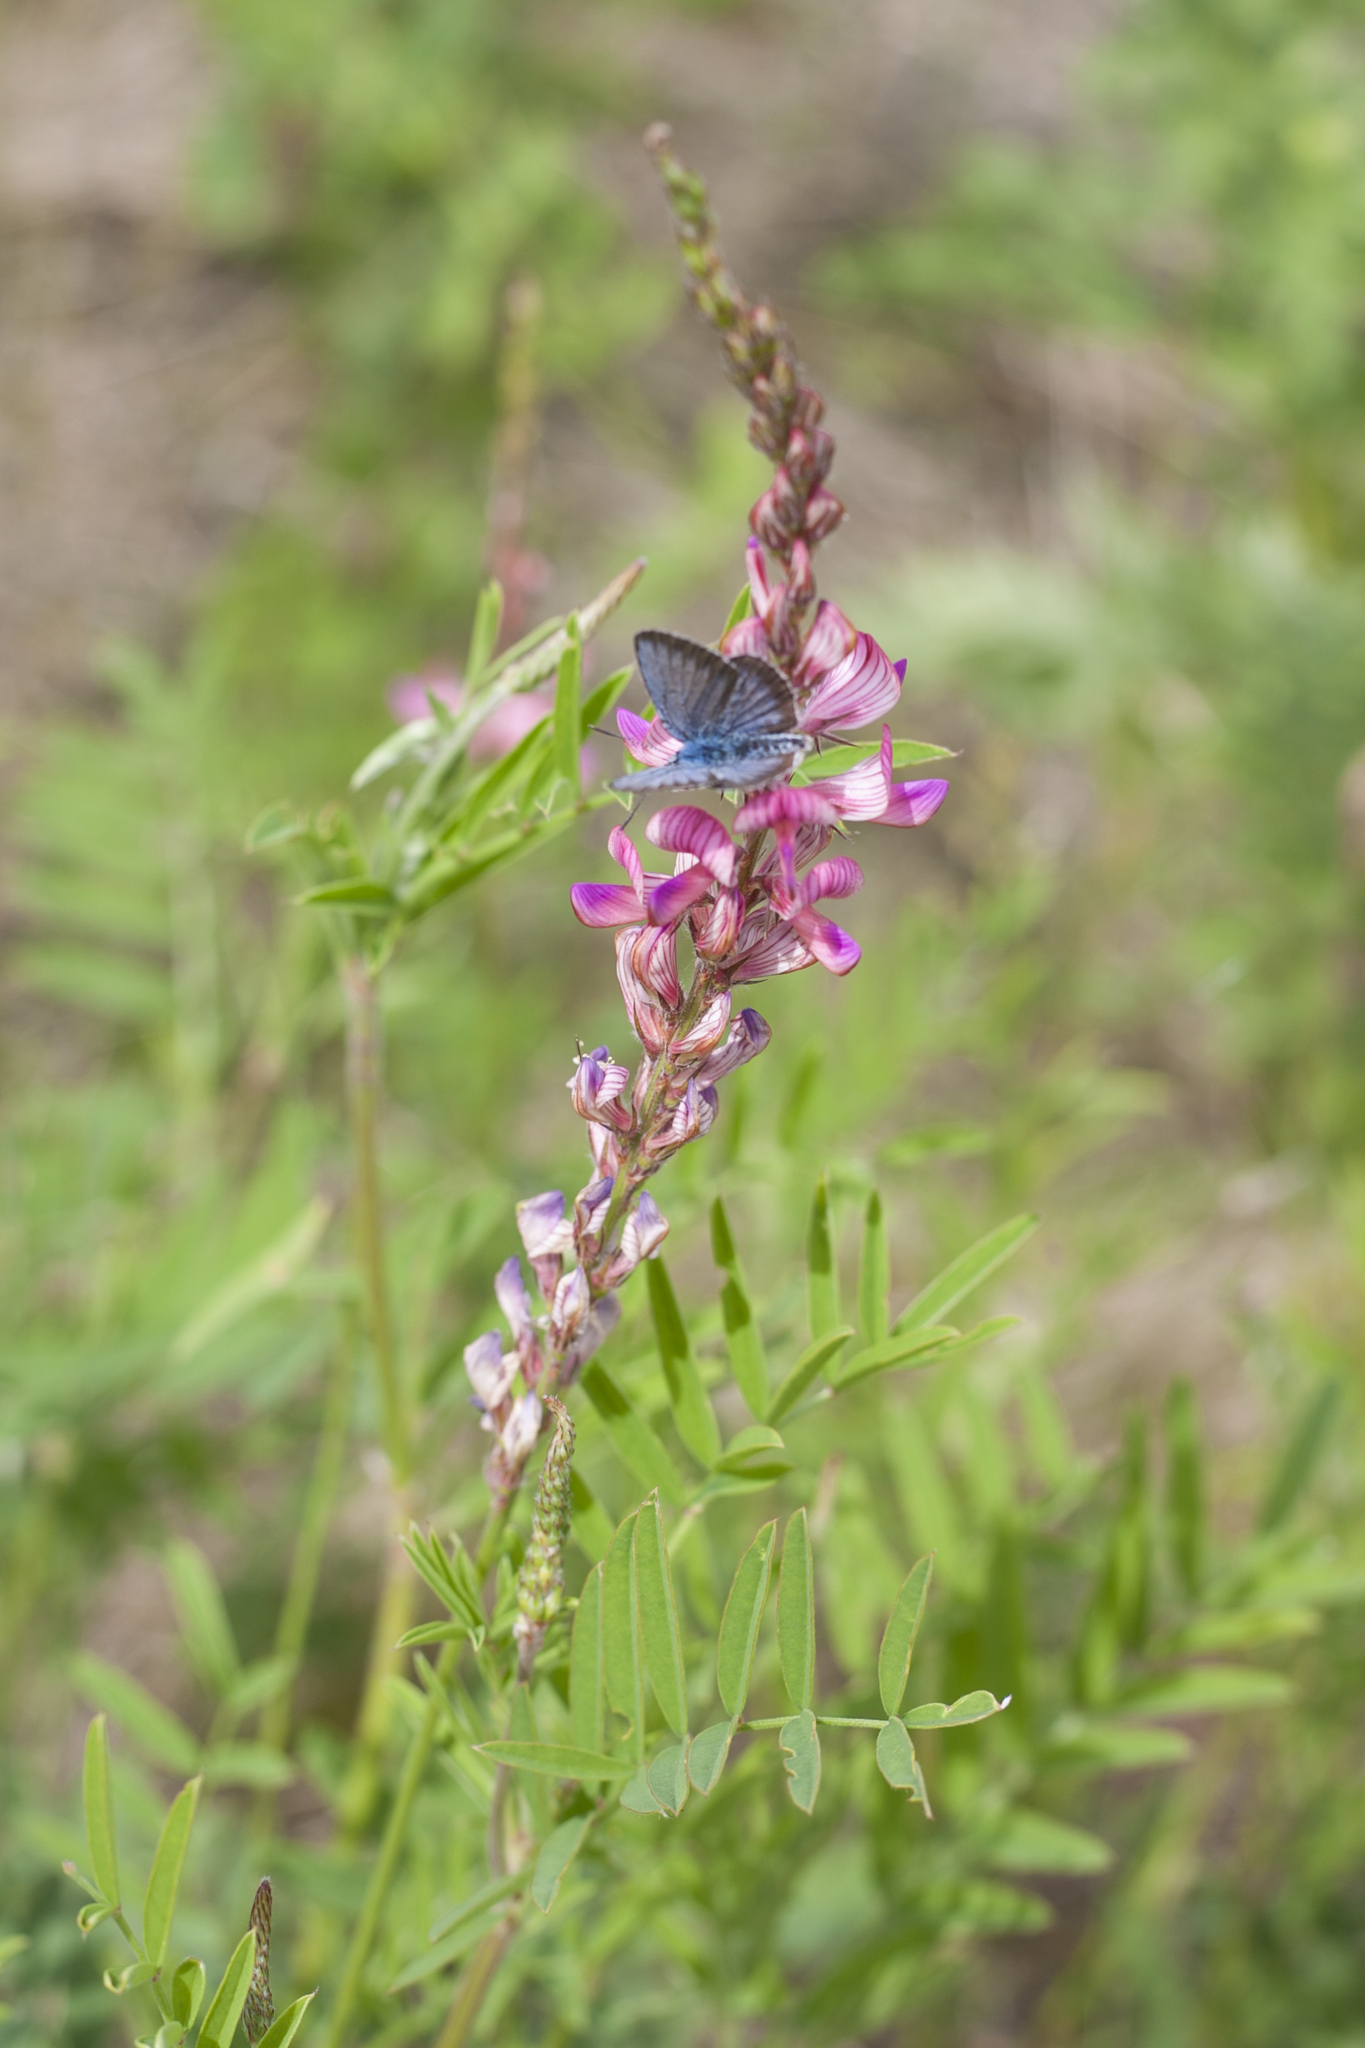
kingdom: Plantae
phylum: Tracheophyta
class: Magnoliopsida
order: Fabales
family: Fabaceae
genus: Onobrychis
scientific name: Onobrychis viciifolia
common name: Sainfoin
